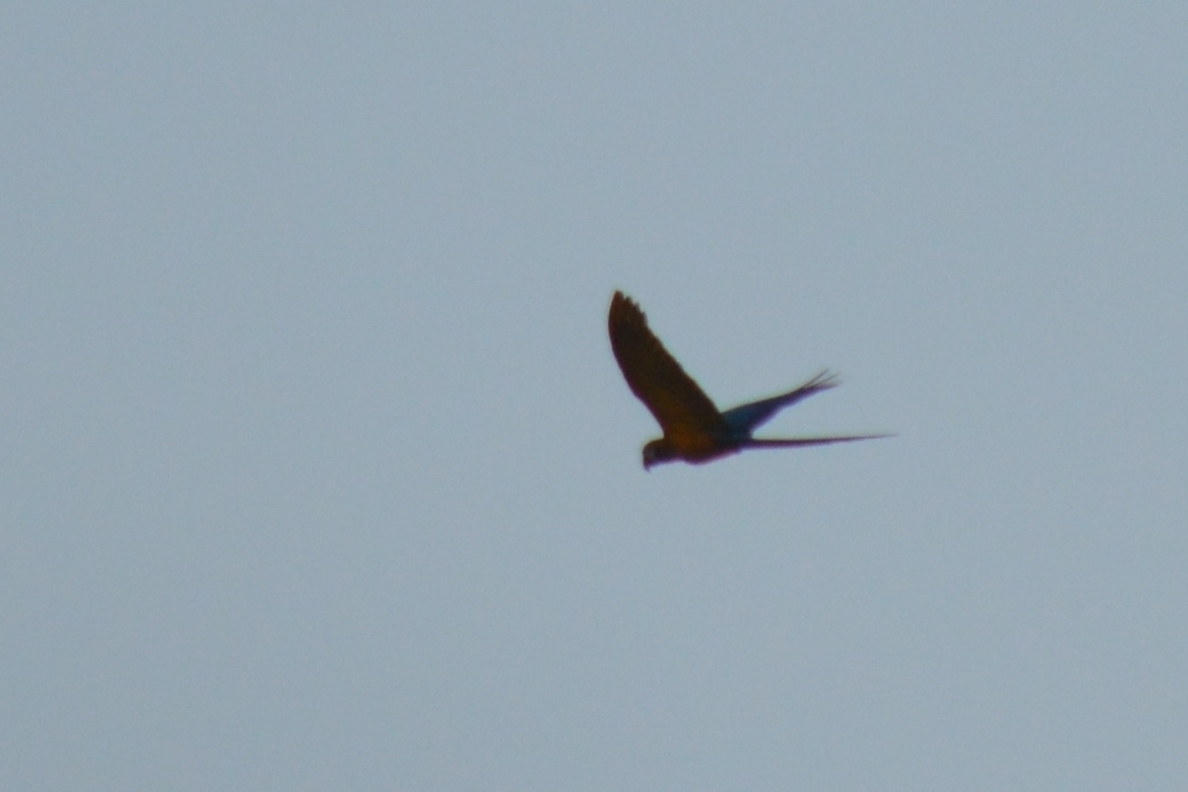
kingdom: Animalia
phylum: Chordata
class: Aves
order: Psittaciformes
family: Psittacidae
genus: Ara
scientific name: Ara ararauna
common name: Blue-and-yellow macaw
